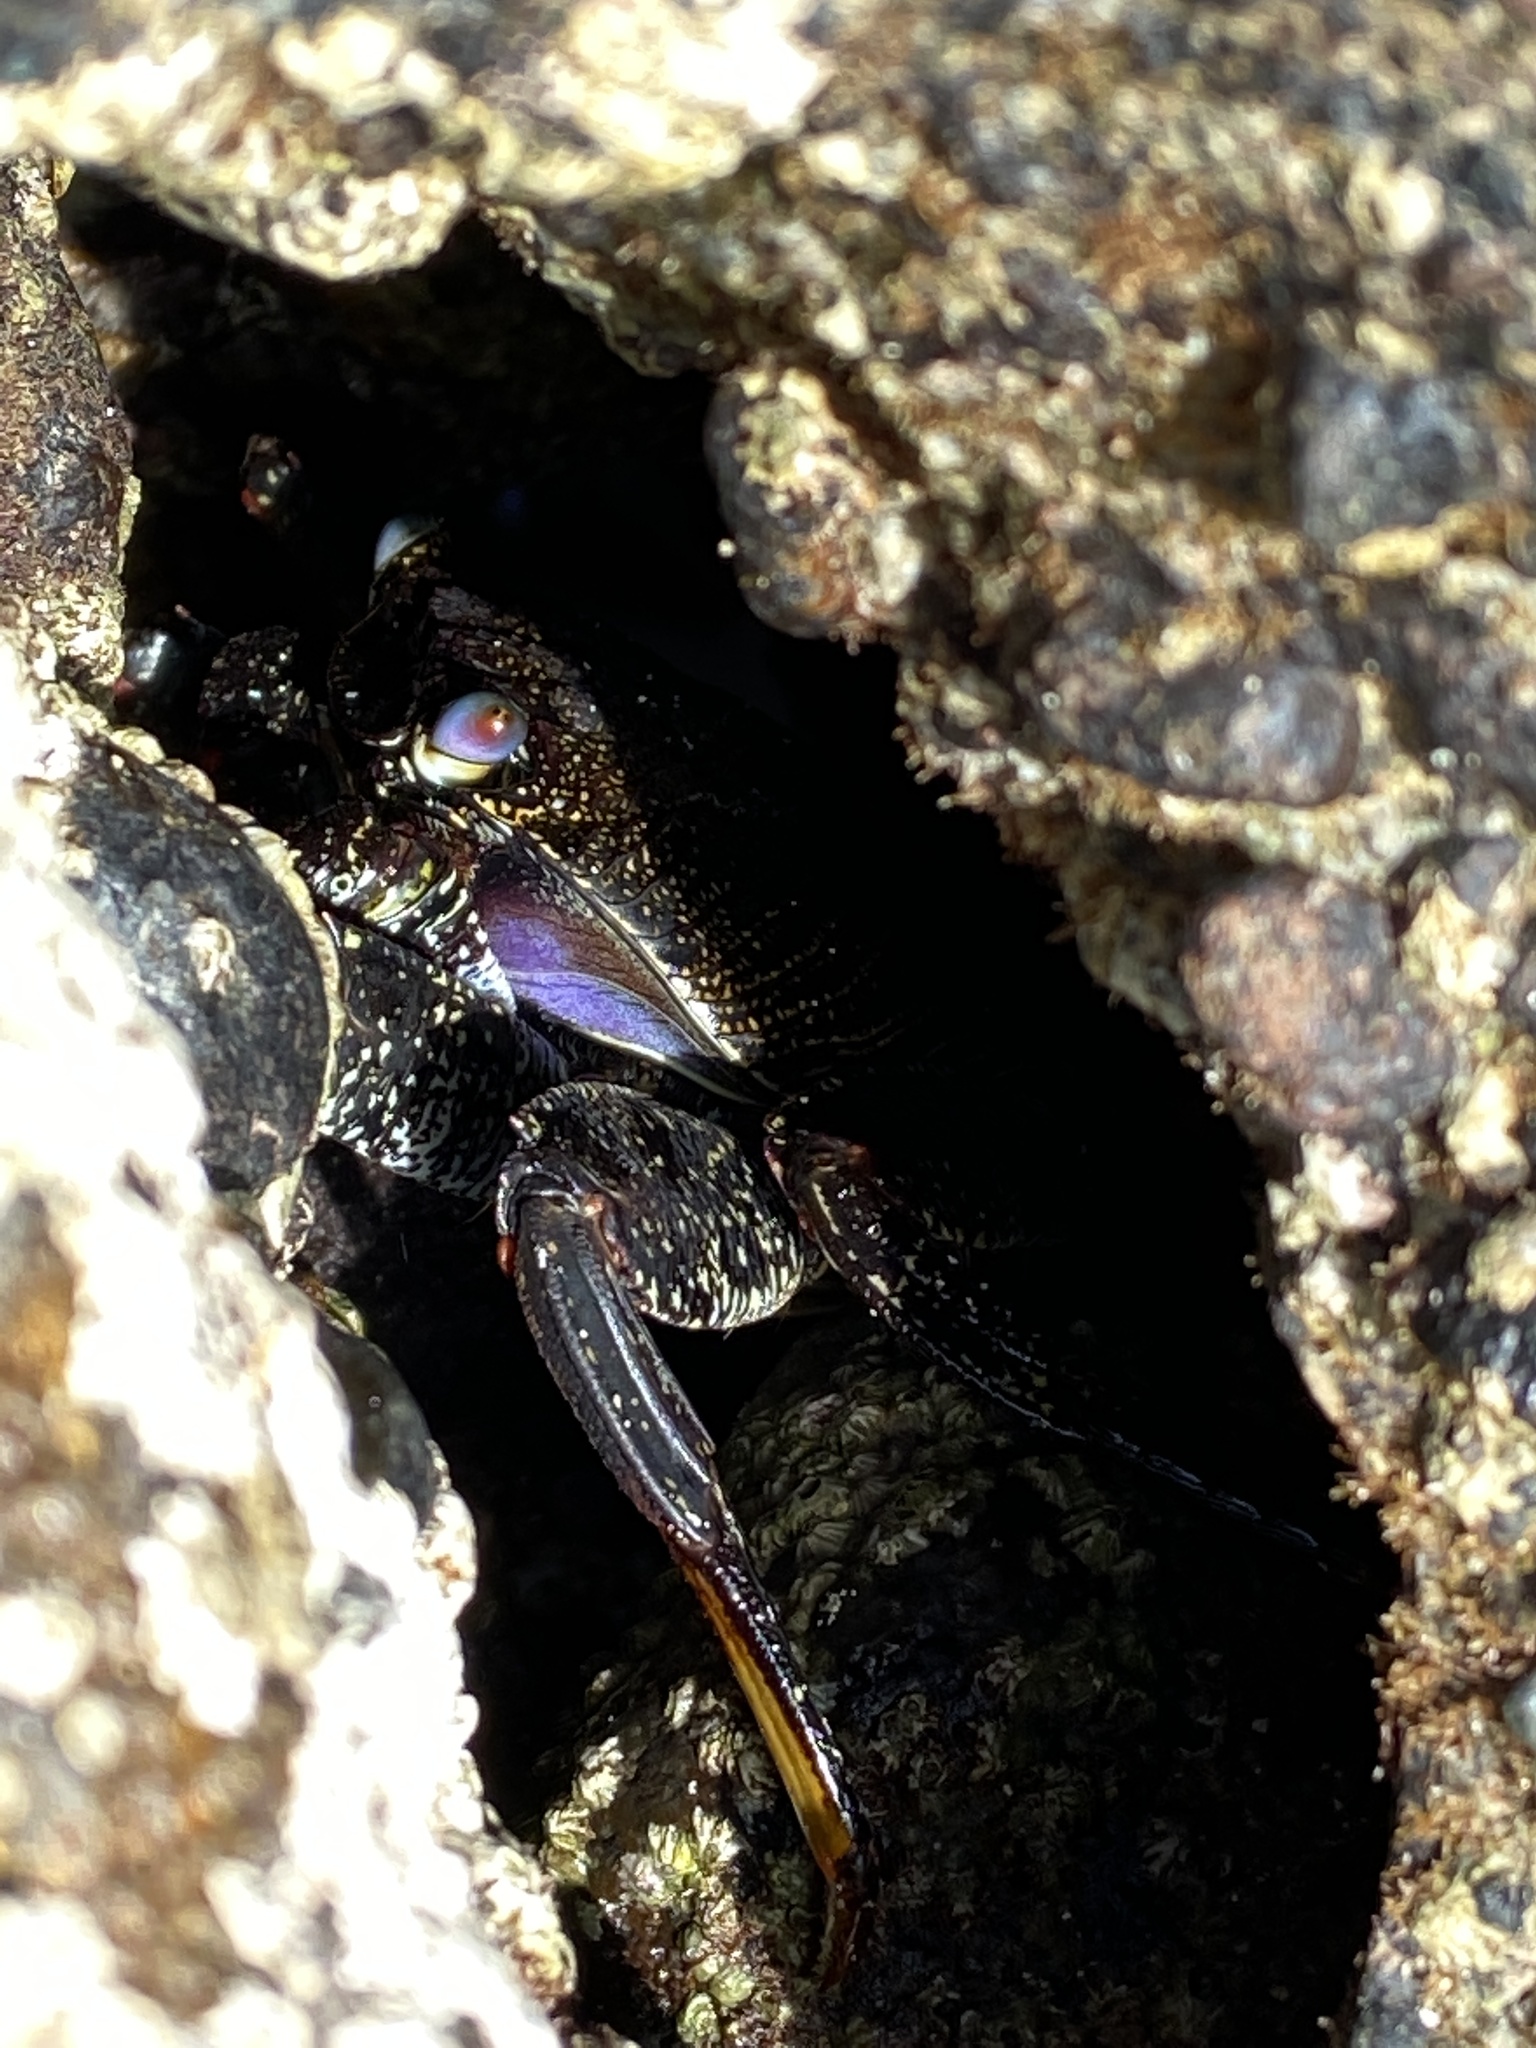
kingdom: Animalia
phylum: Arthropoda
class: Malacostraca
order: Decapoda
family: Grapsidae
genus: Grapsus
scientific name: Grapsus adscensionis
